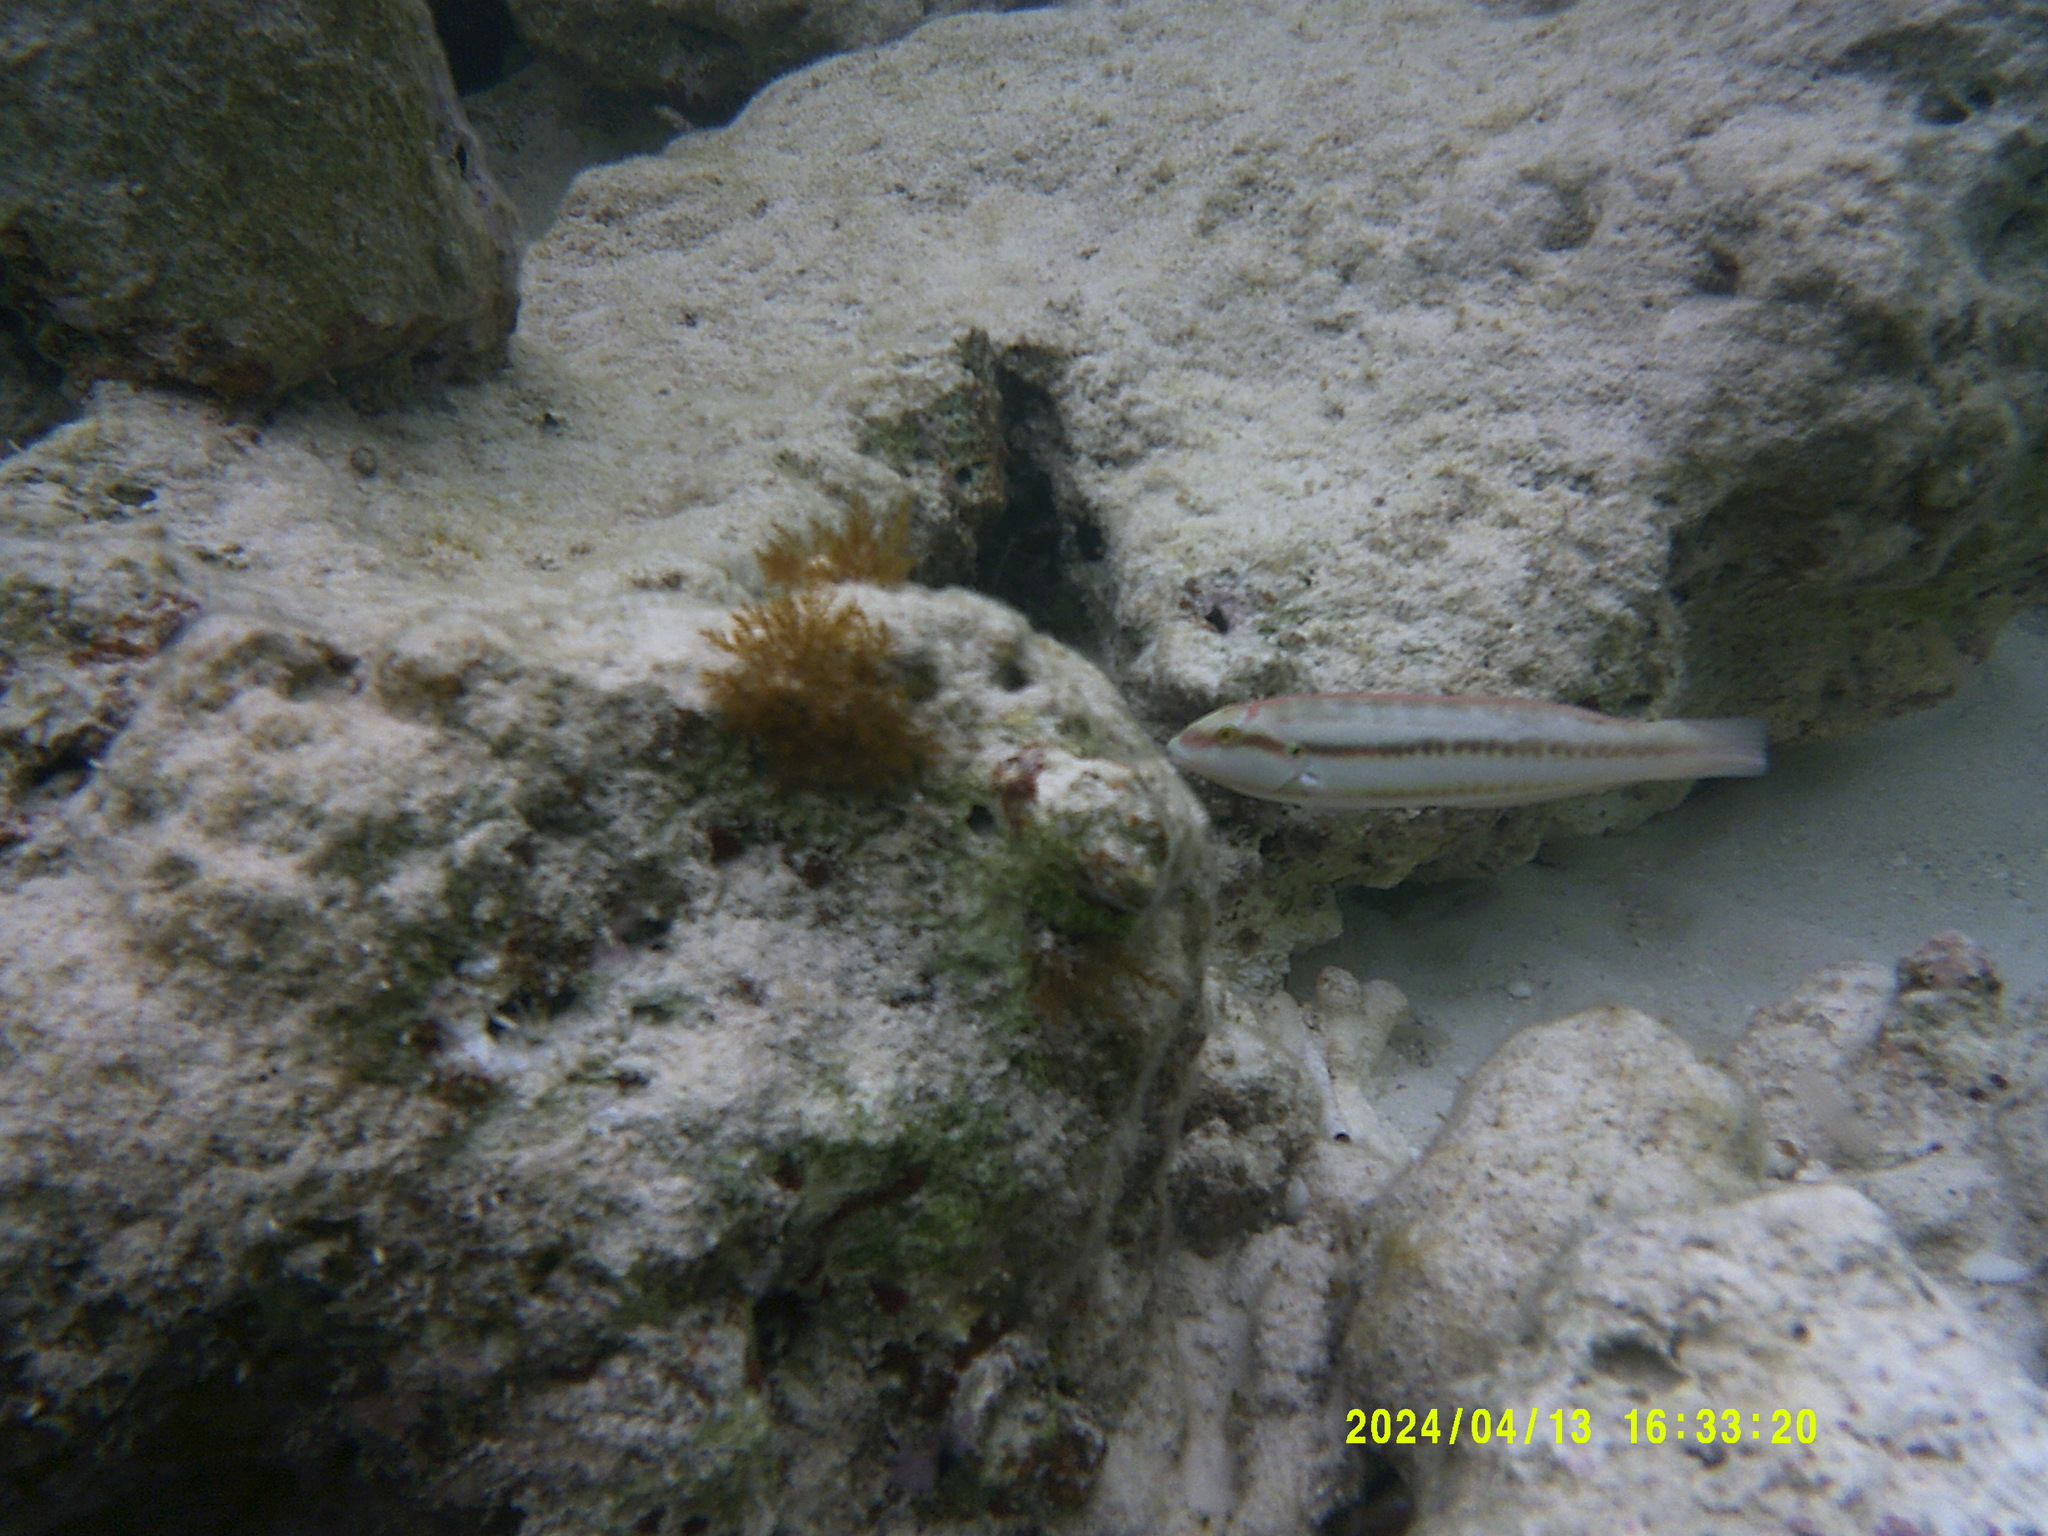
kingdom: Animalia
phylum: Chordata
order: Perciformes
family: Labridae
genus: Halichoeres
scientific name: Halichoeres bivittatus
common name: Slippery dick
